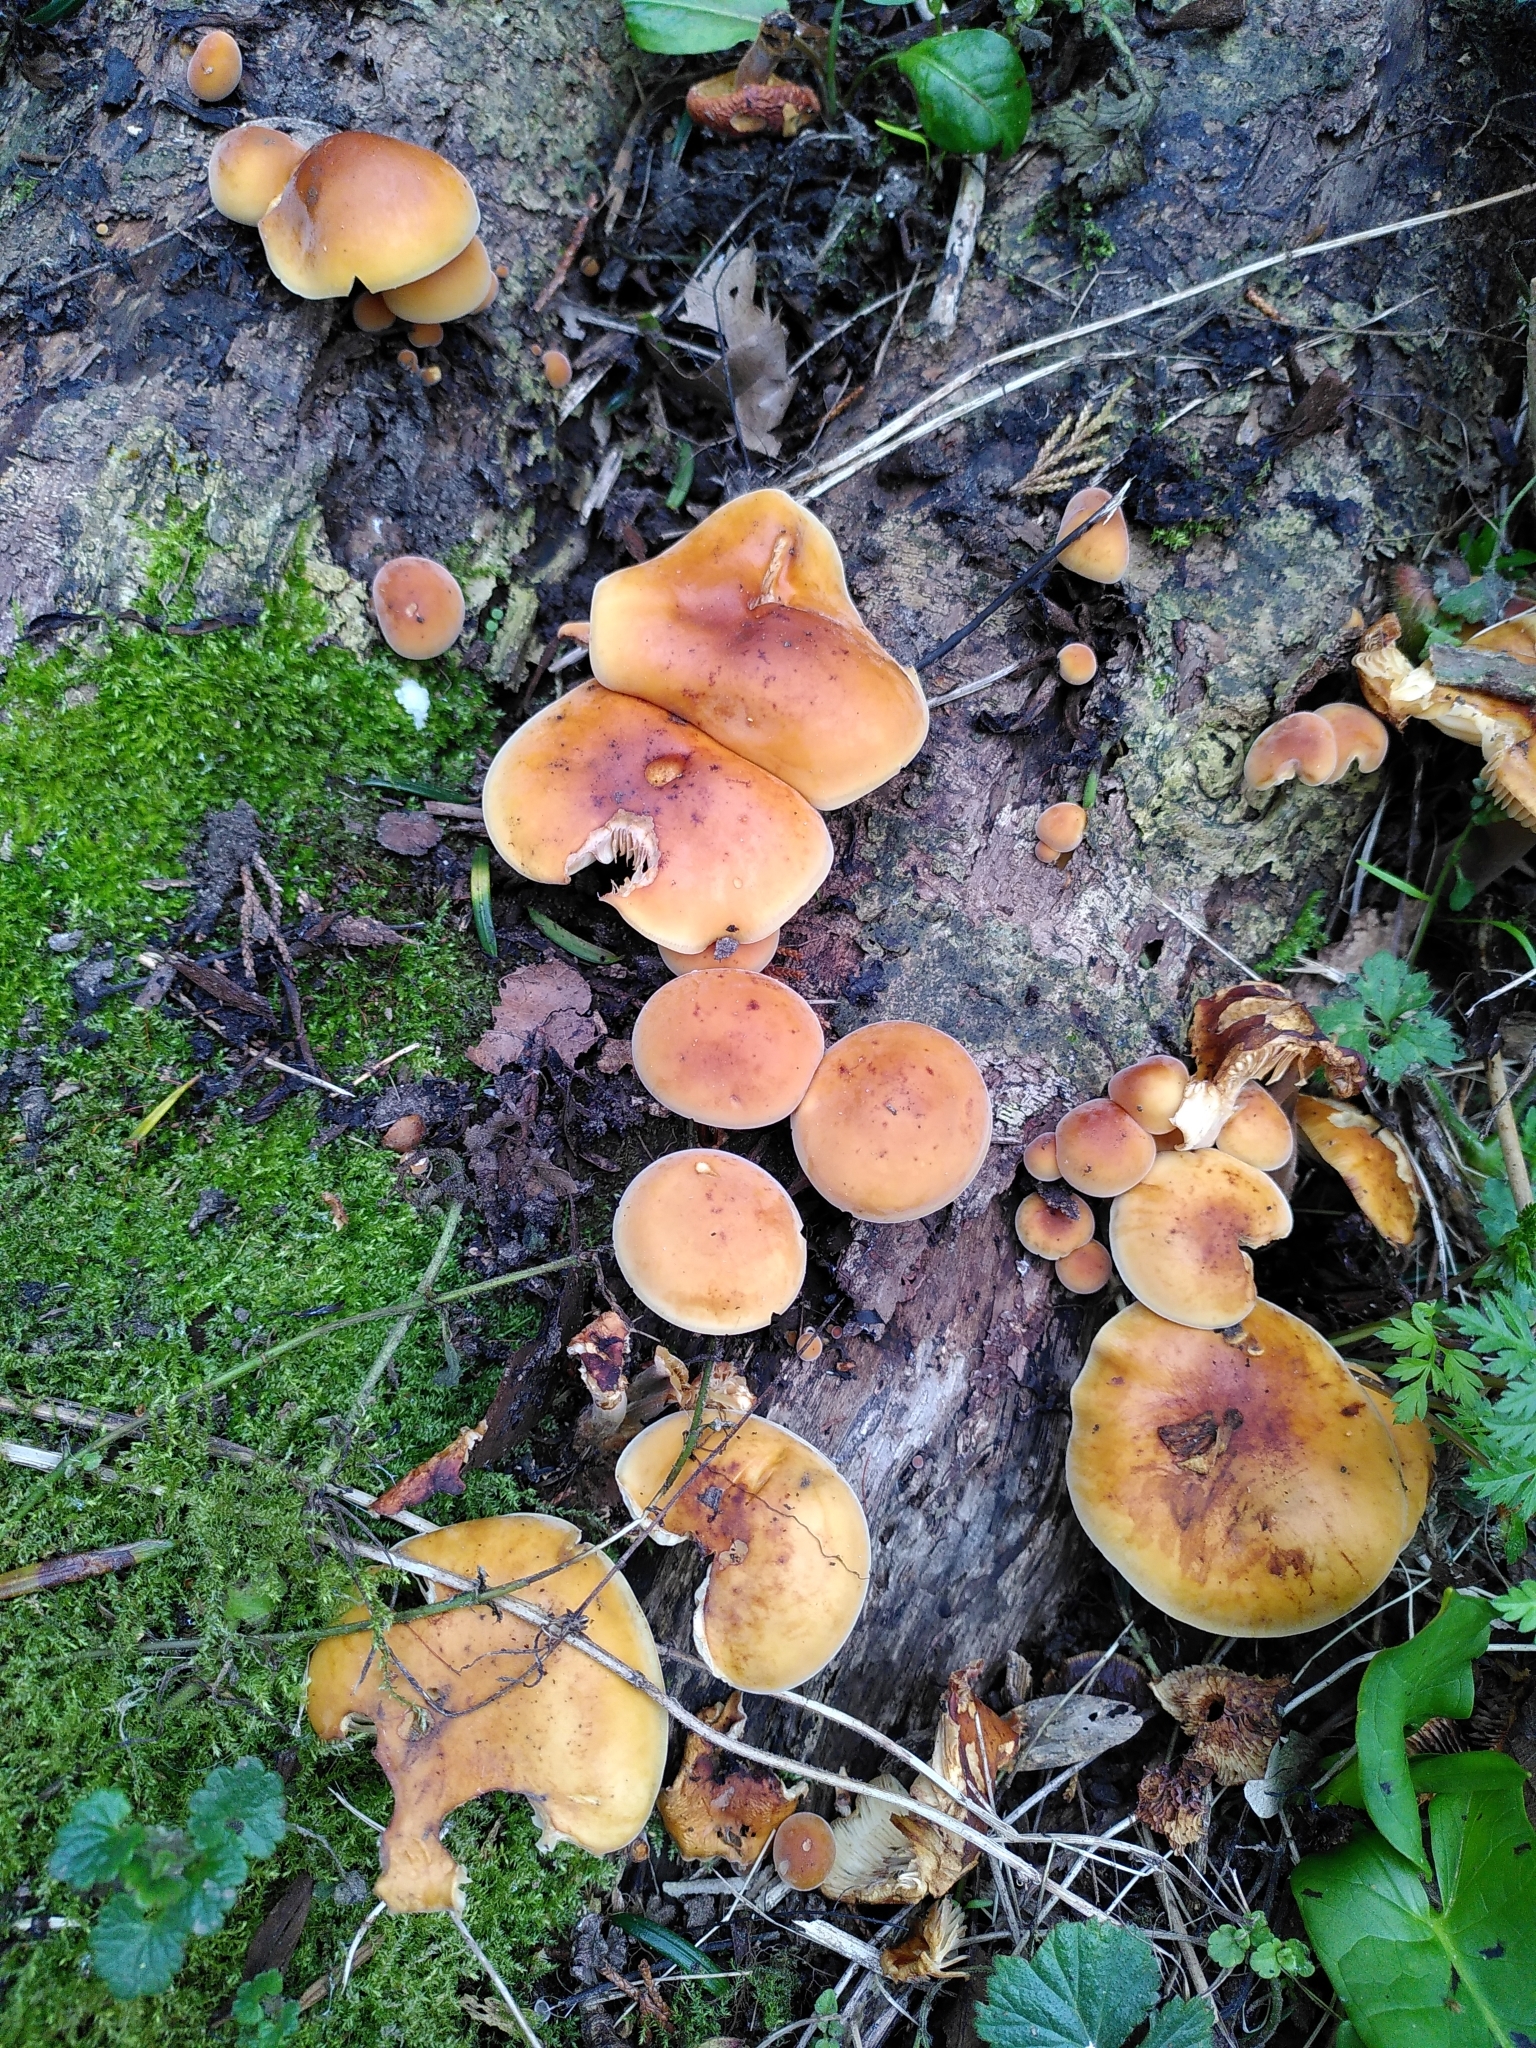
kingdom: Fungi
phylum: Basidiomycota
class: Agaricomycetes
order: Agaricales
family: Physalacriaceae
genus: Flammulina
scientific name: Flammulina
